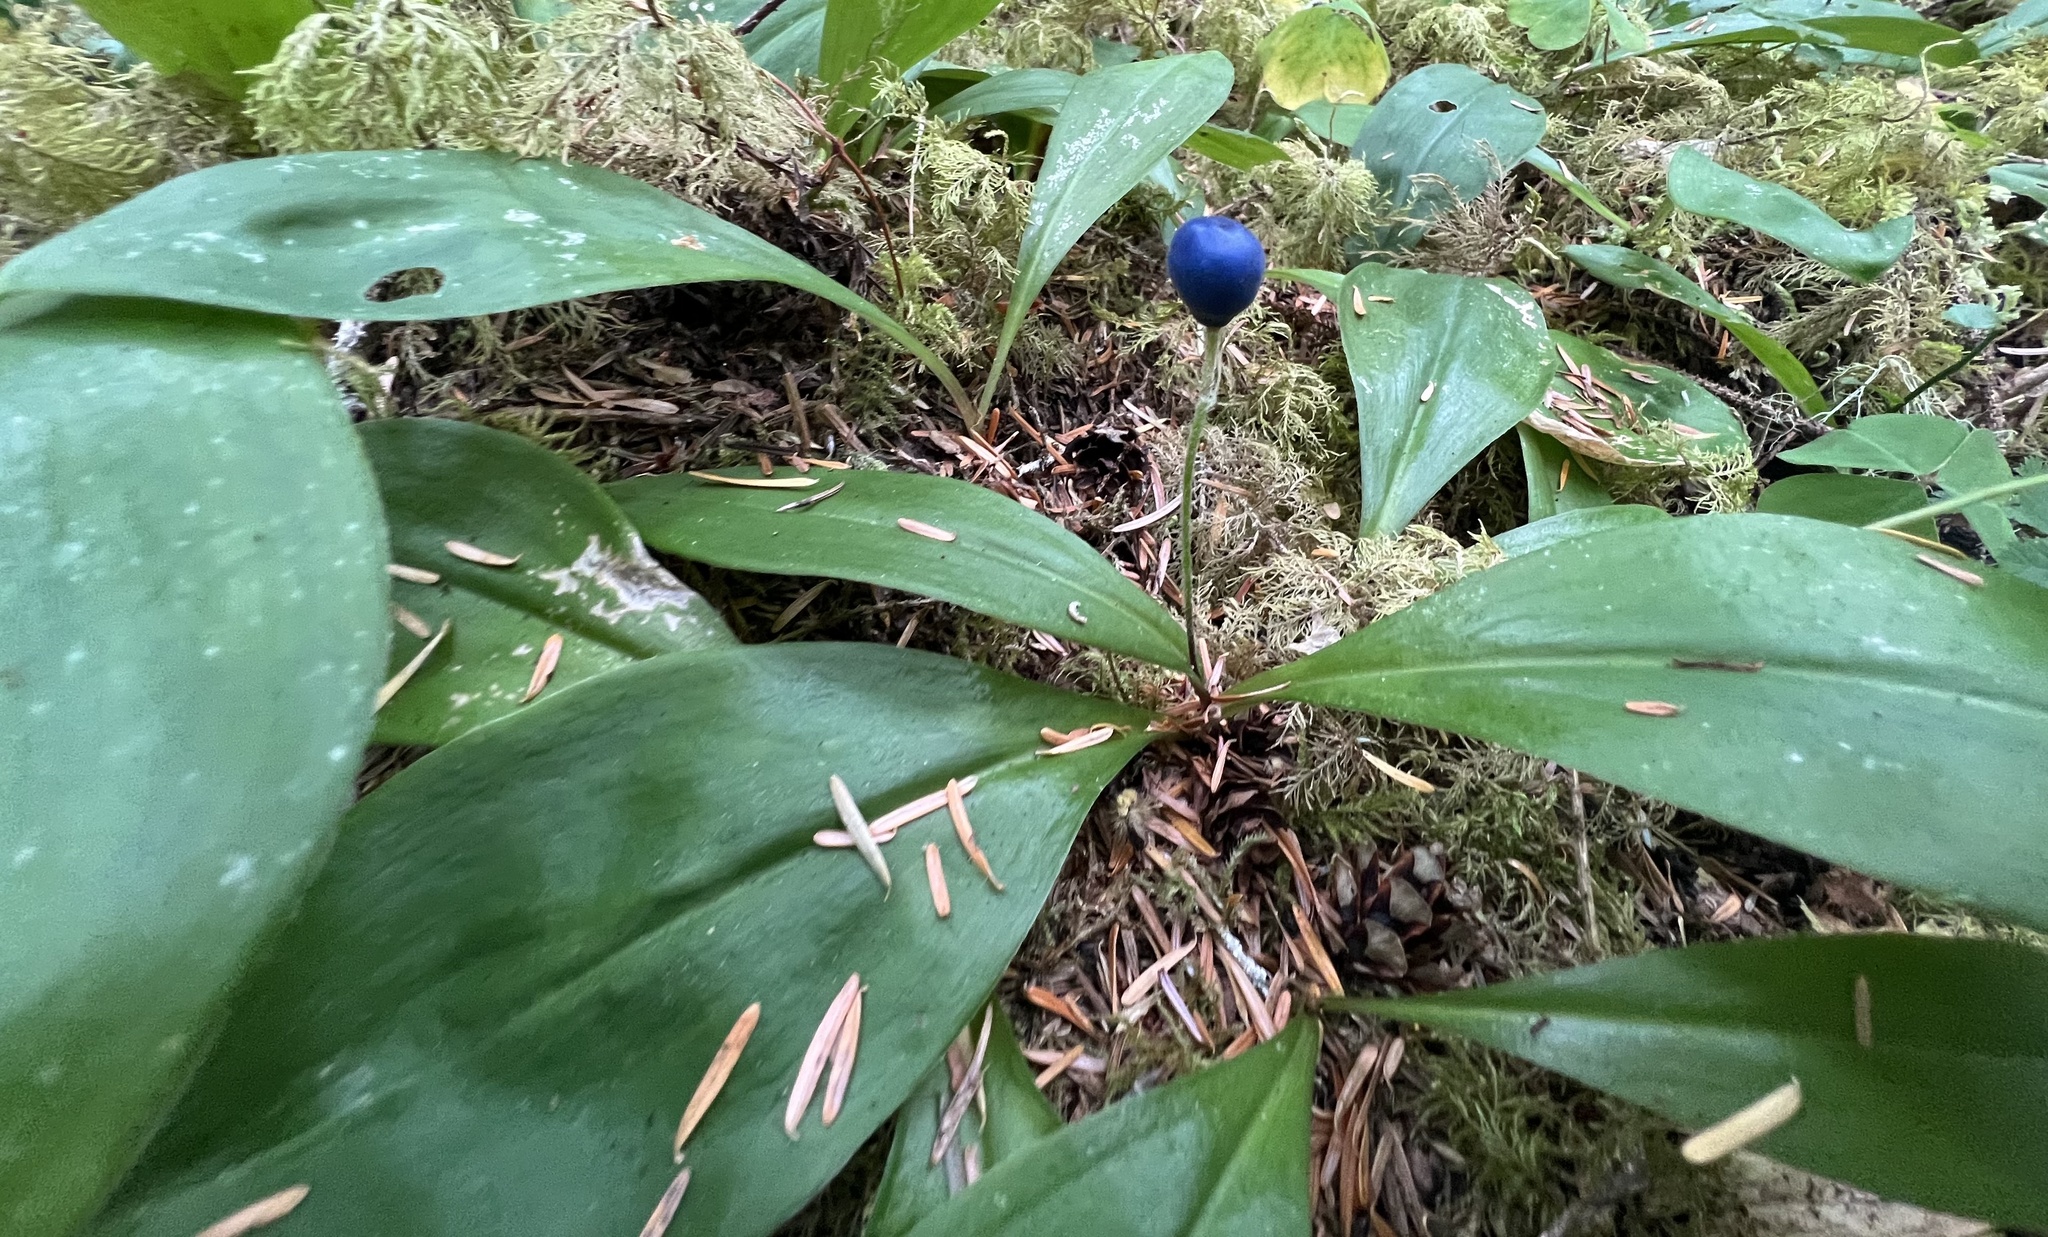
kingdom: Plantae
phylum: Tracheophyta
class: Liliopsida
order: Liliales
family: Liliaceae
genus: Clintonia
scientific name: Clintonia uniflora
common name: Queen's cup
